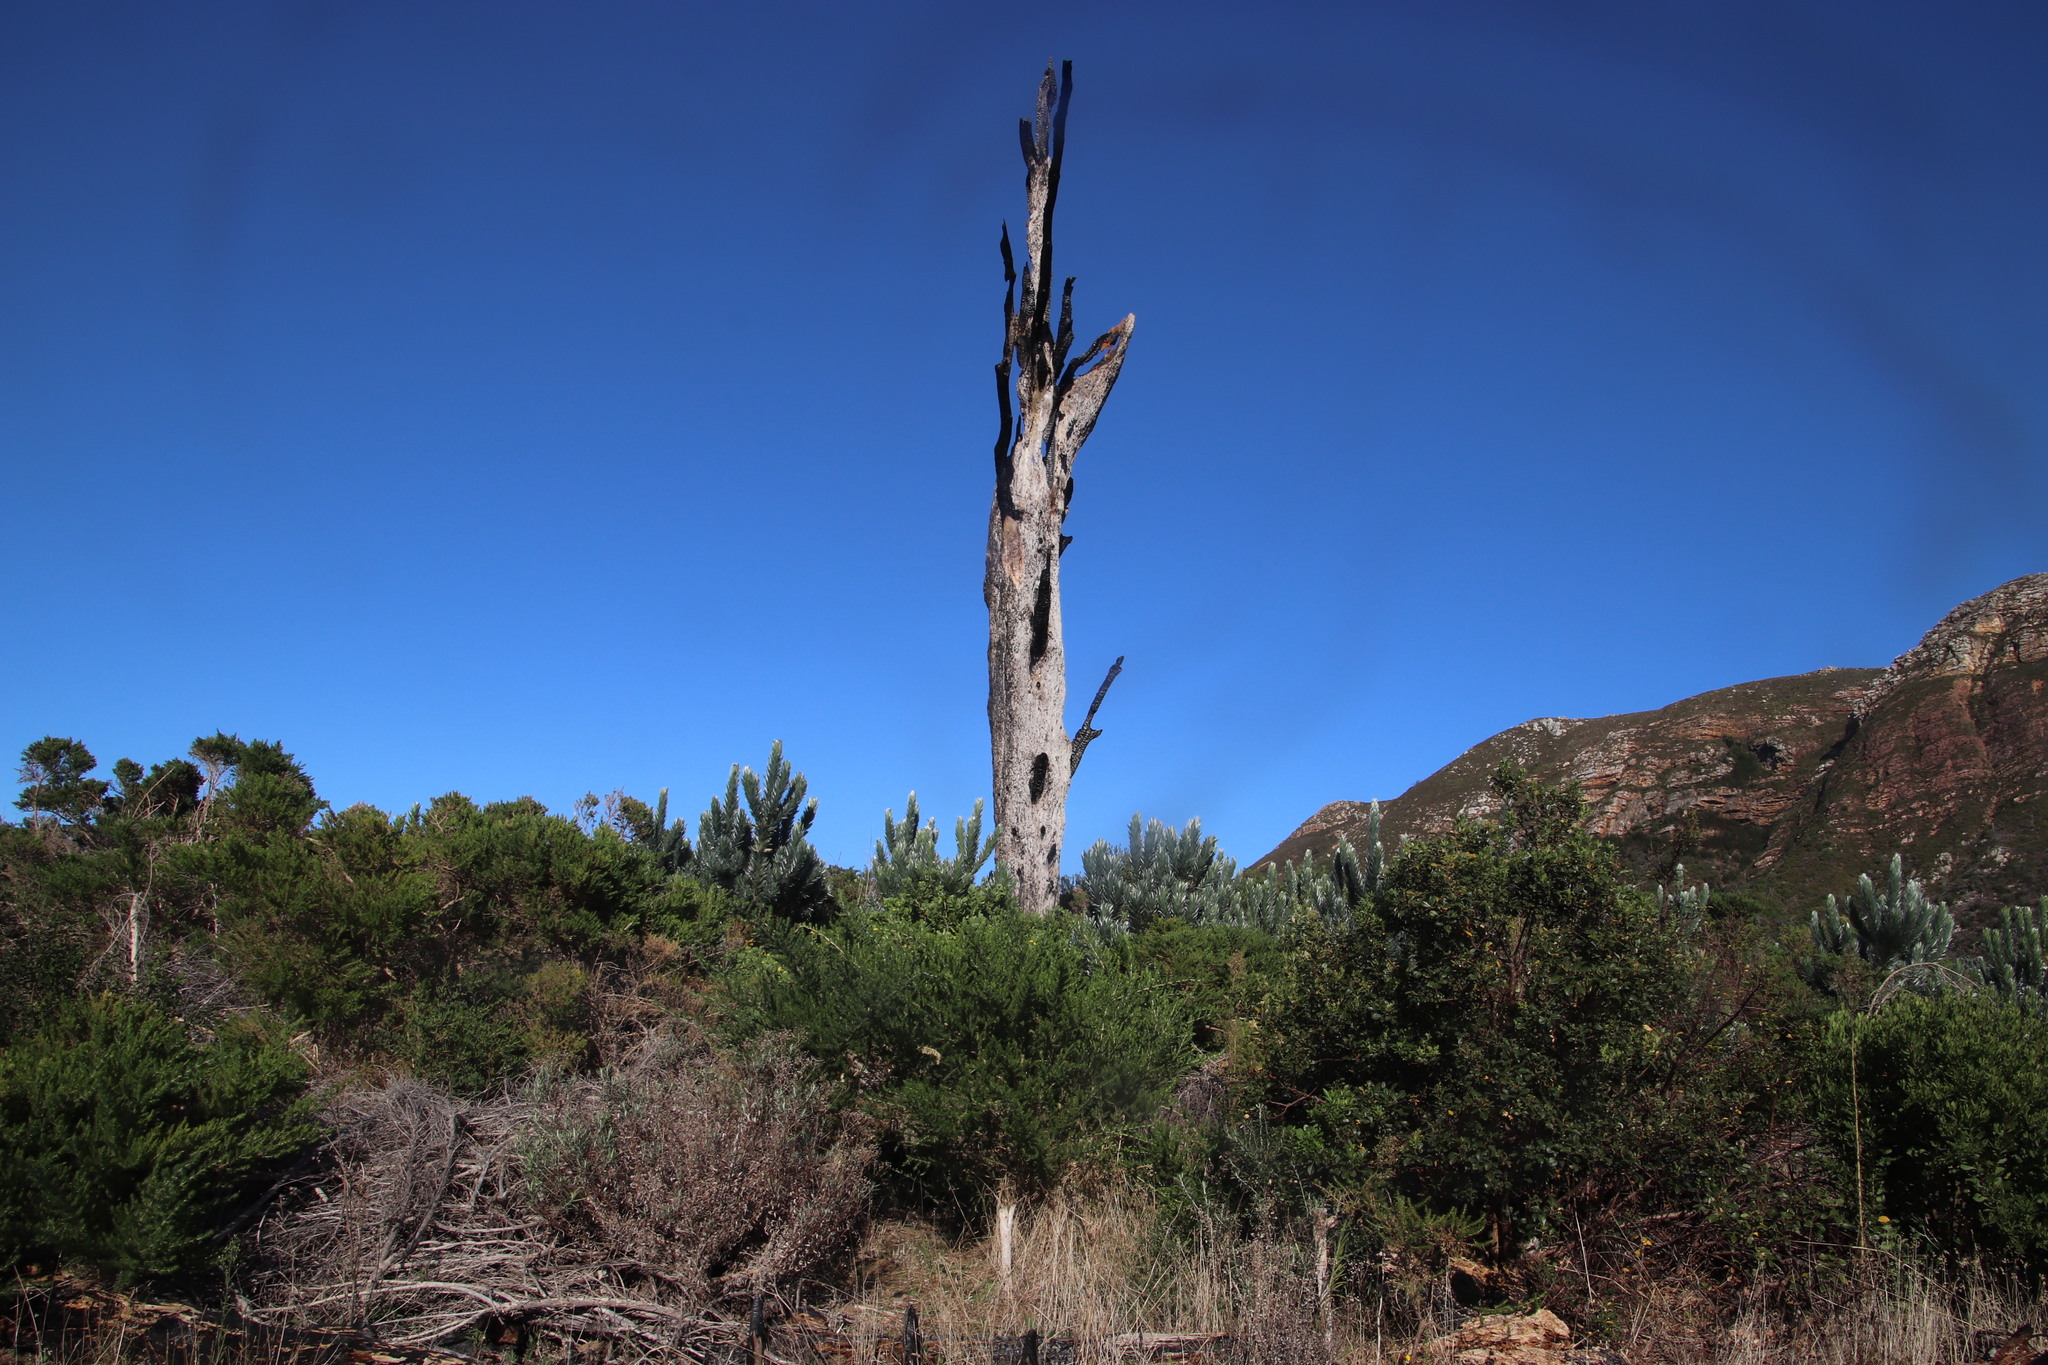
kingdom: Plantae
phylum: Tracheophyta
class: Pinopsida
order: Pinales
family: Pinaceae
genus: Pinus
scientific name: Pinus pinaster
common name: Maritime pine
